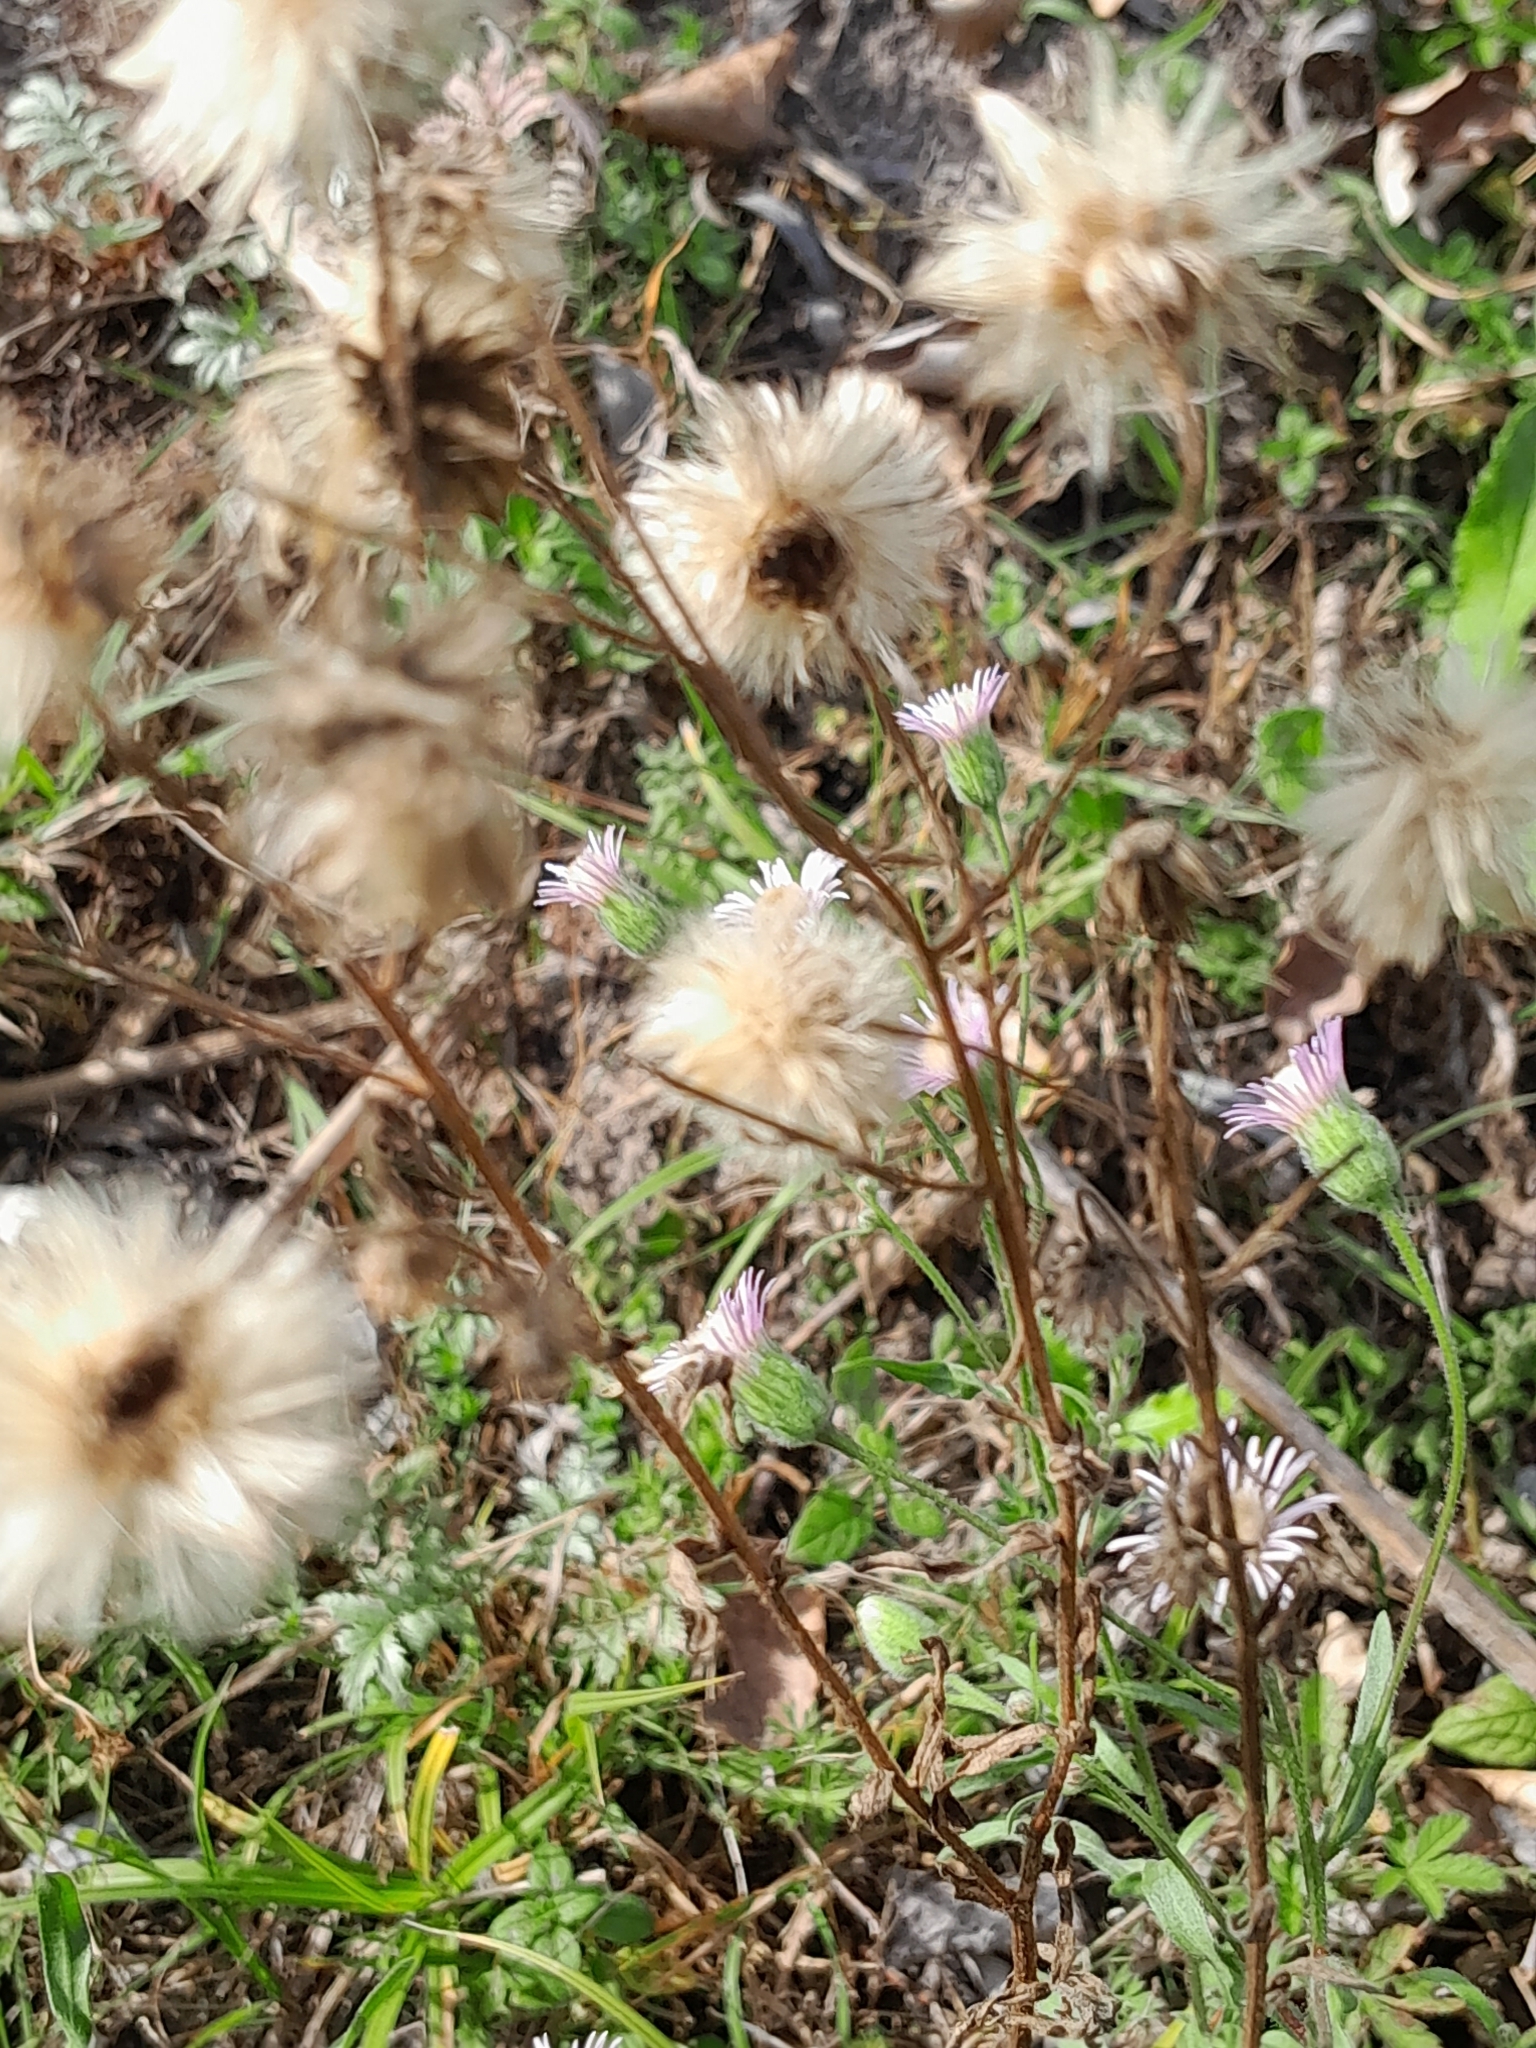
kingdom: Plantae
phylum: Tracheophyta
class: Magnoliopsida
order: Asterales
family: Asteraceae
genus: Erigeron
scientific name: Erigeron acris
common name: Blue fleabane
